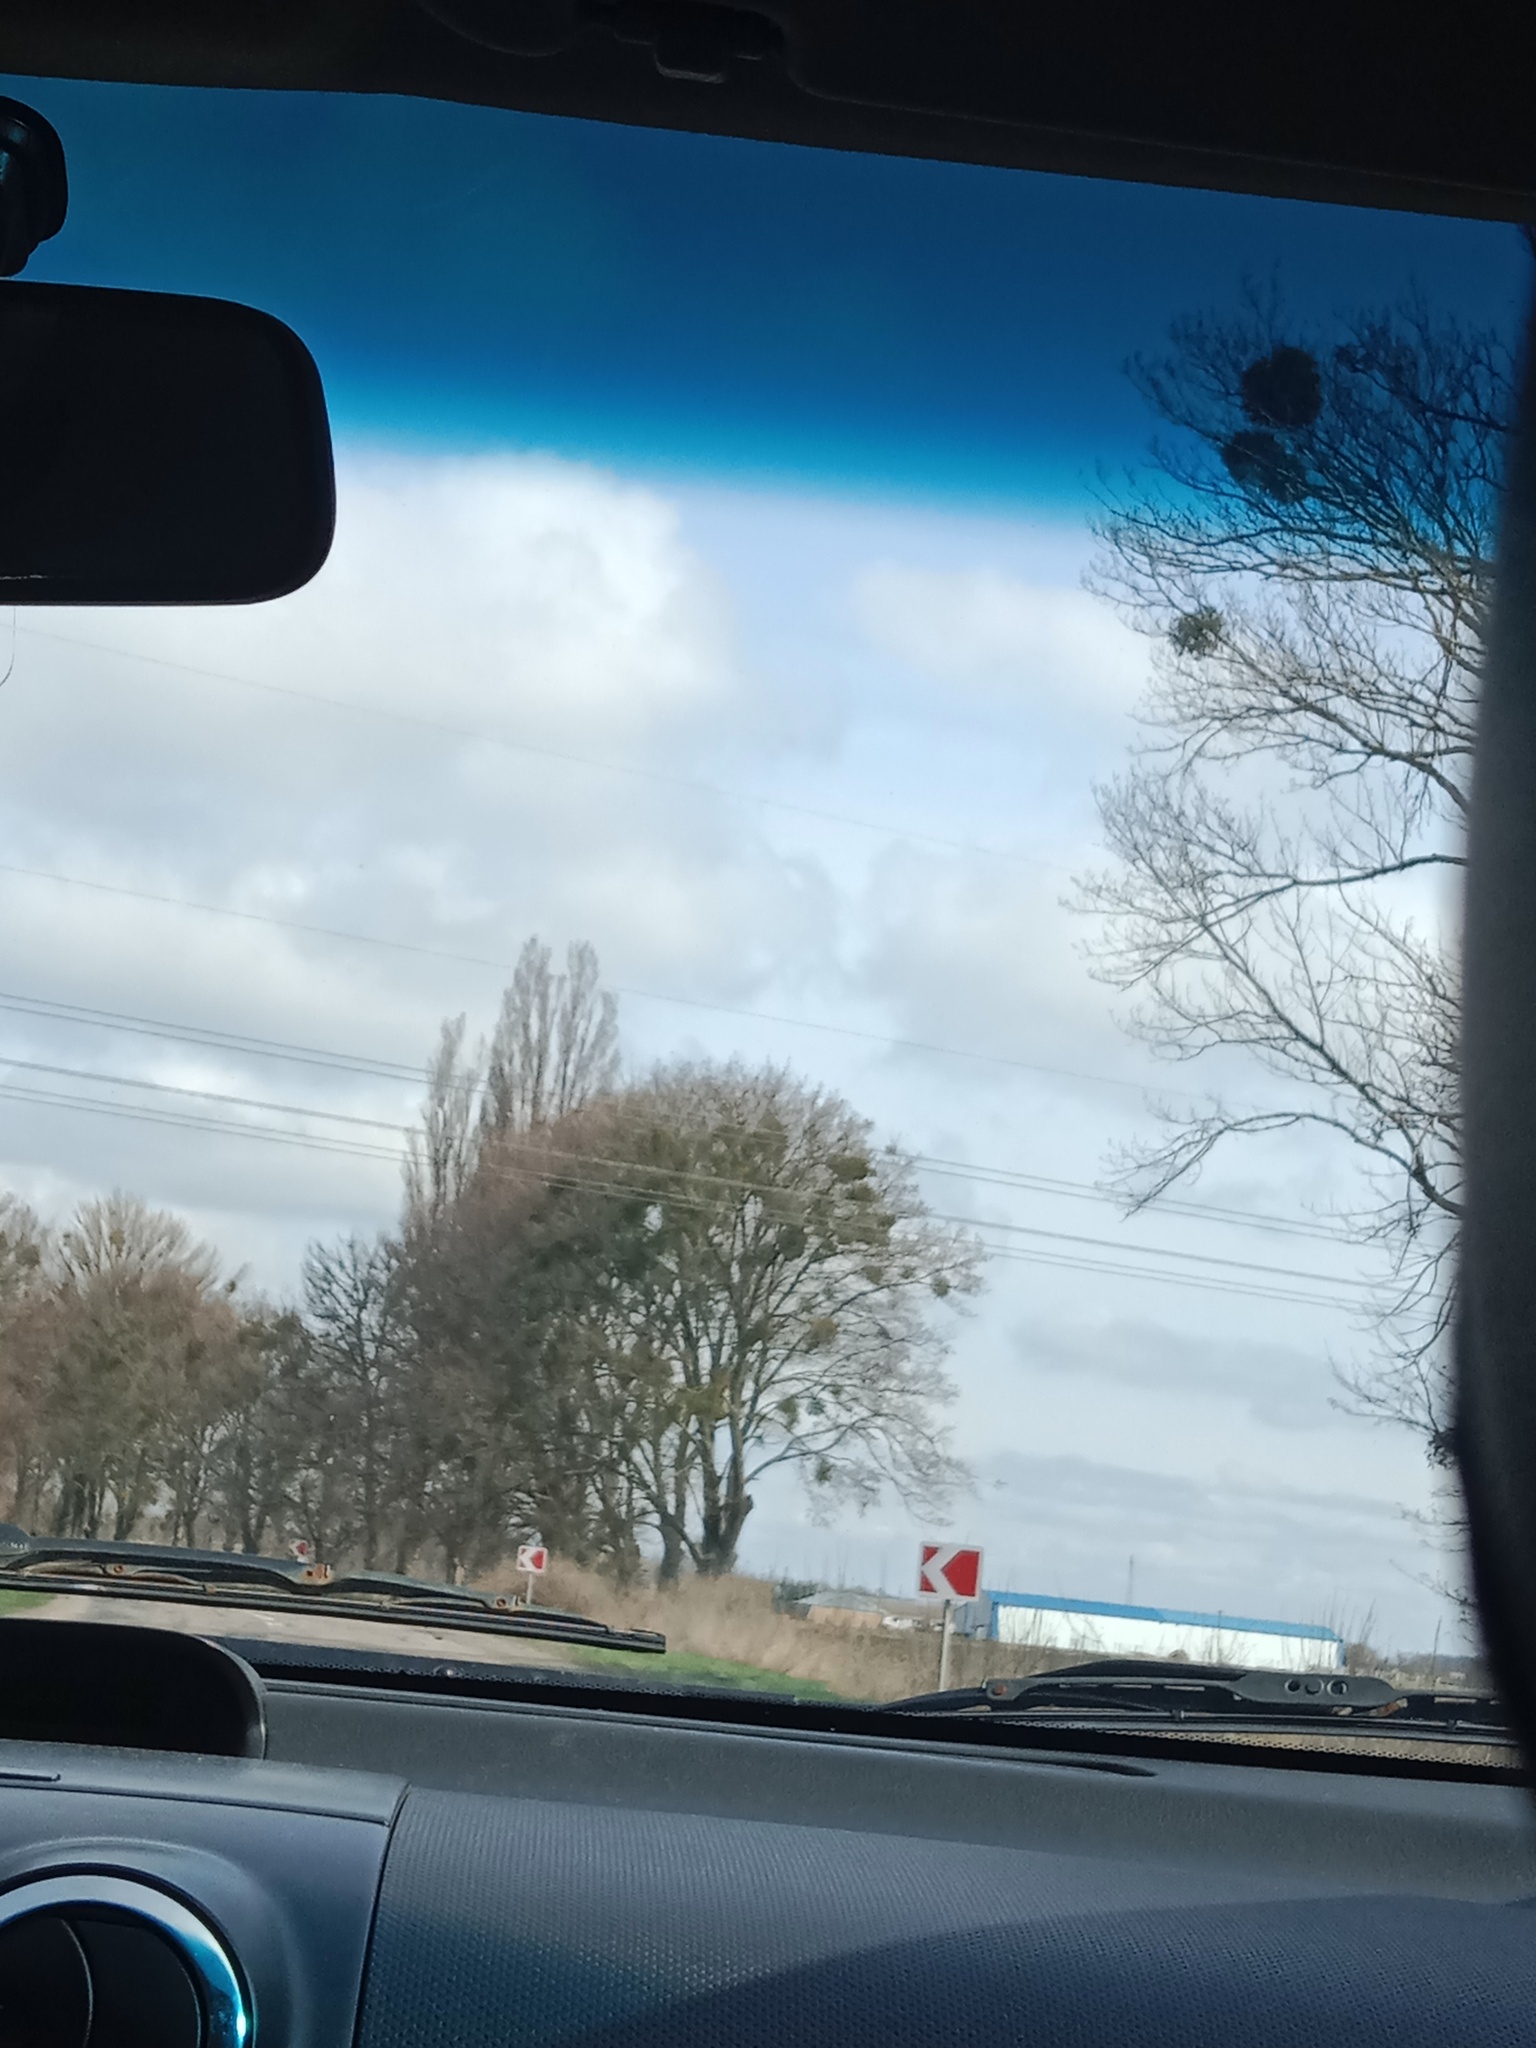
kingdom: Plantae
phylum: Tracheophyta
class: Magnoliopsida
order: Santalales
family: Viscaceae
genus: Viscum
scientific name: Viscum album
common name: Mistletoe
